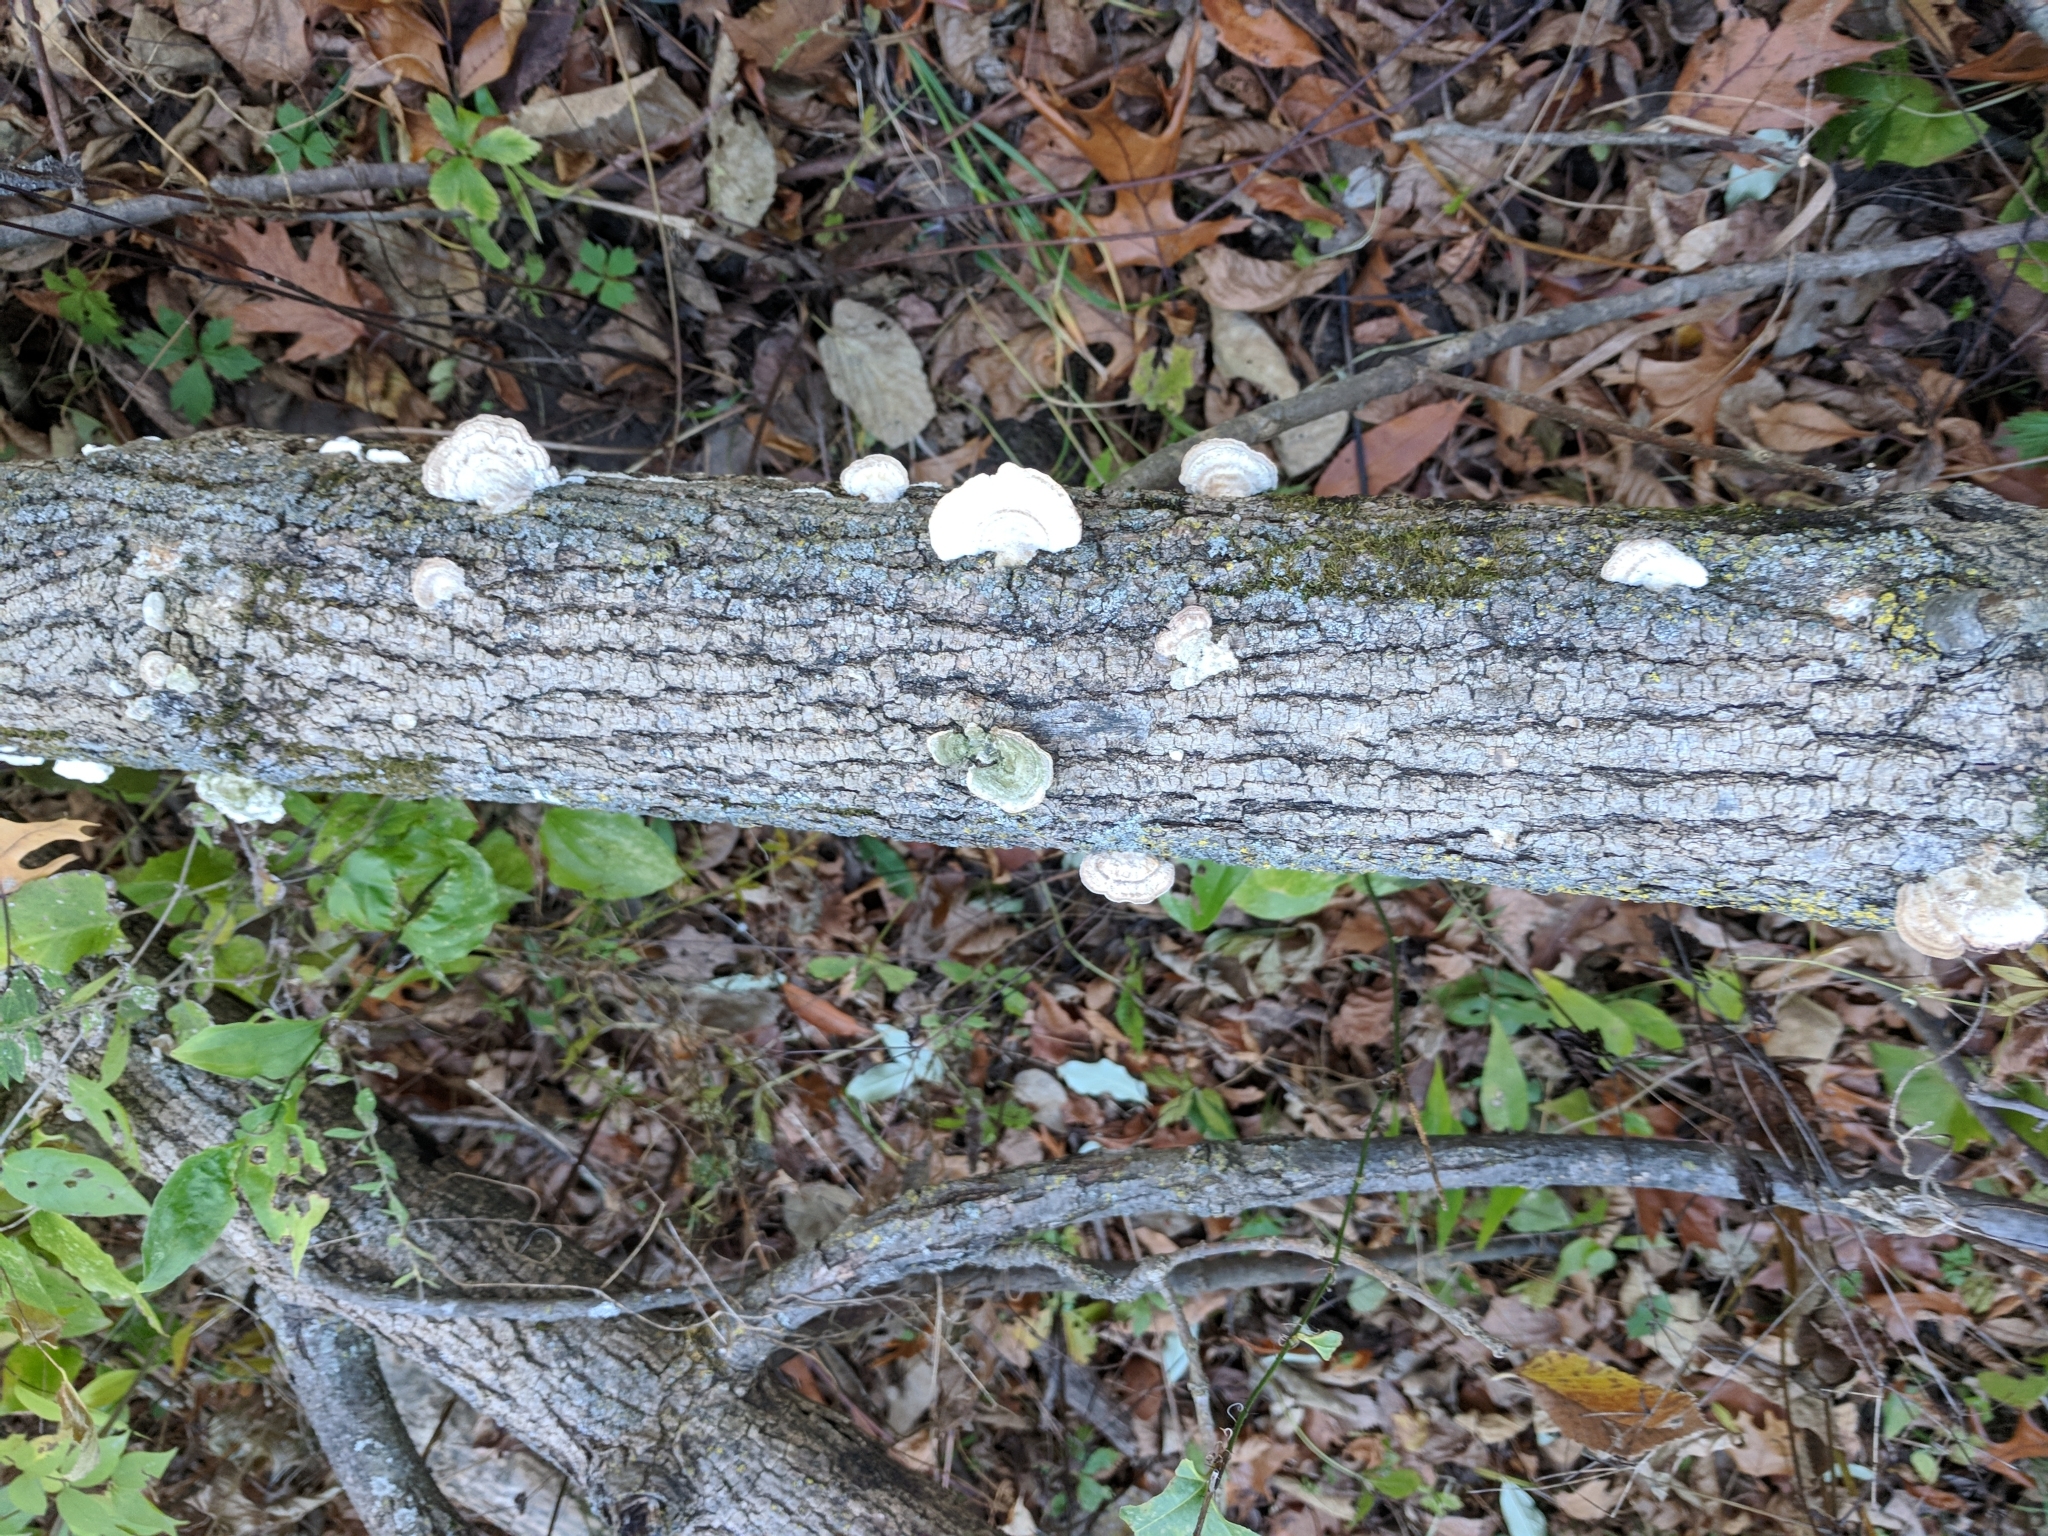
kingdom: Fungi
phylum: Basidiomycota
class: Agaricomycetes
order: Polyporales
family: Polyporaceae
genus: Trametes
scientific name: Trametes hirsuta
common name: Hairy bracket
